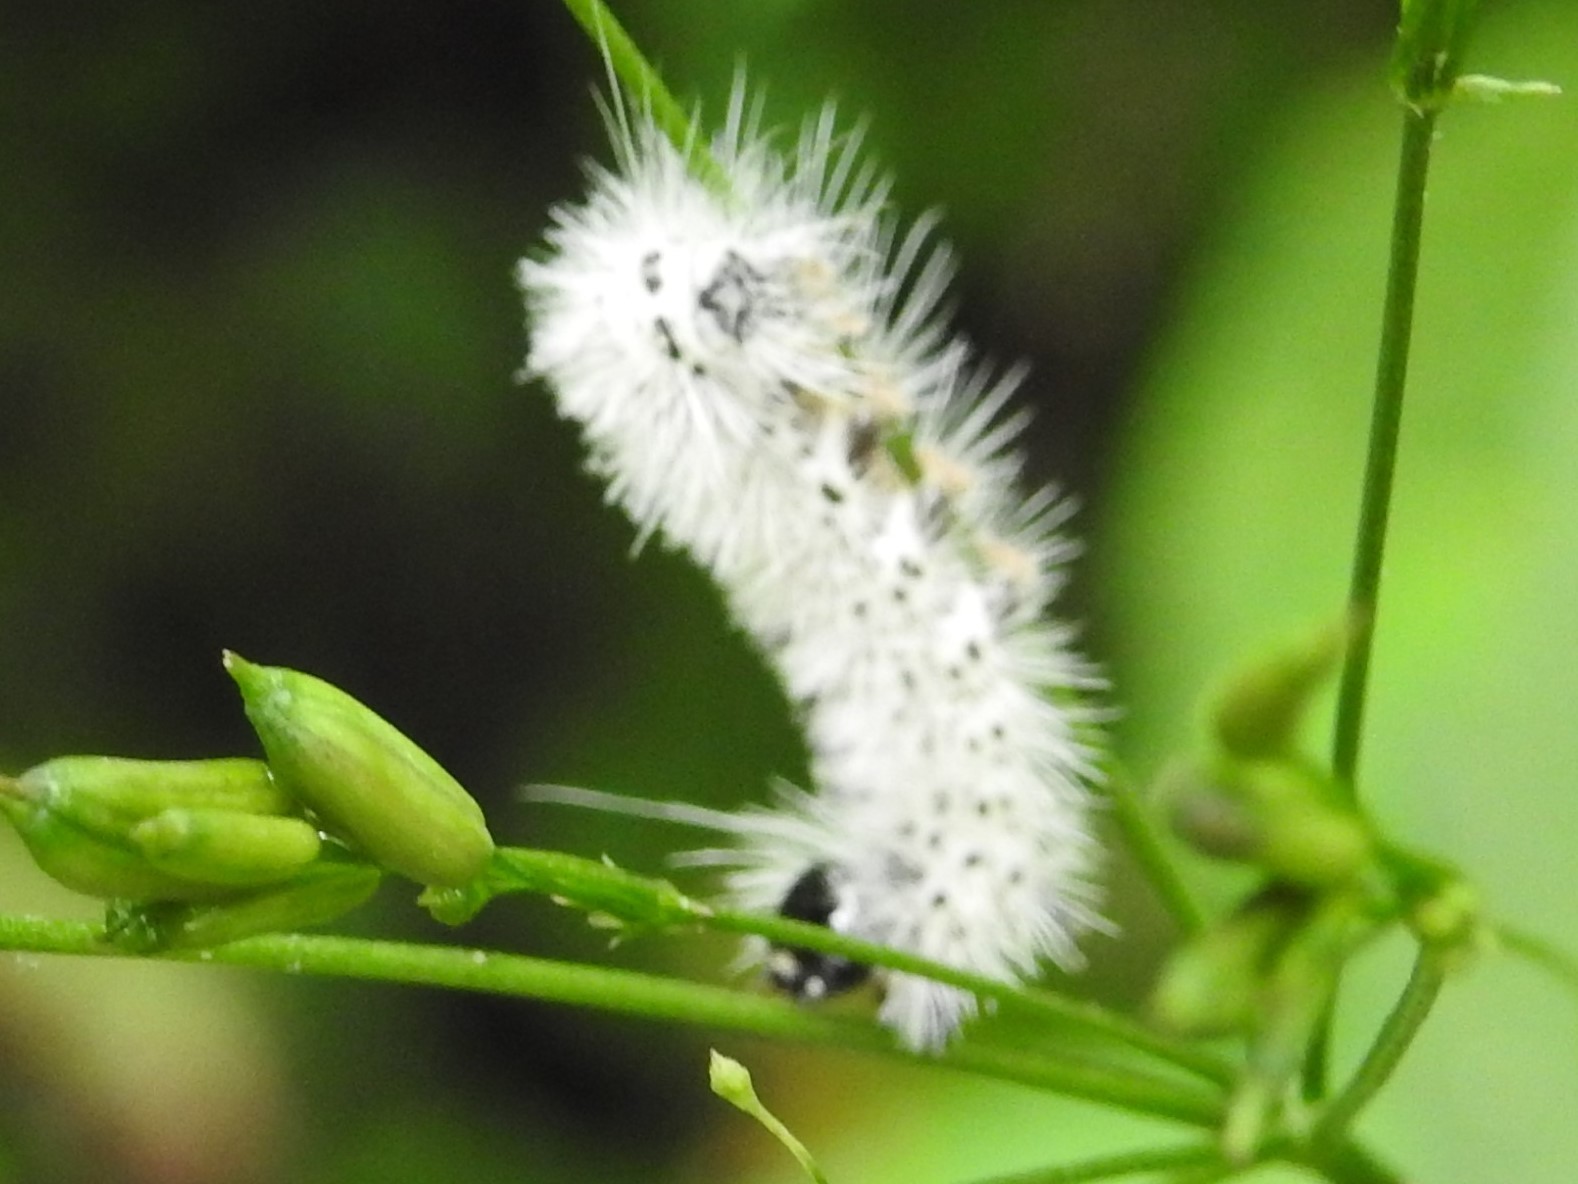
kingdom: Animalia
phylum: Arthropoda
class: Insecta
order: Lepidoptera
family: Erebidae
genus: Lophocampa
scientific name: Lophocampa caryae
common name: Hickory tussock moth
